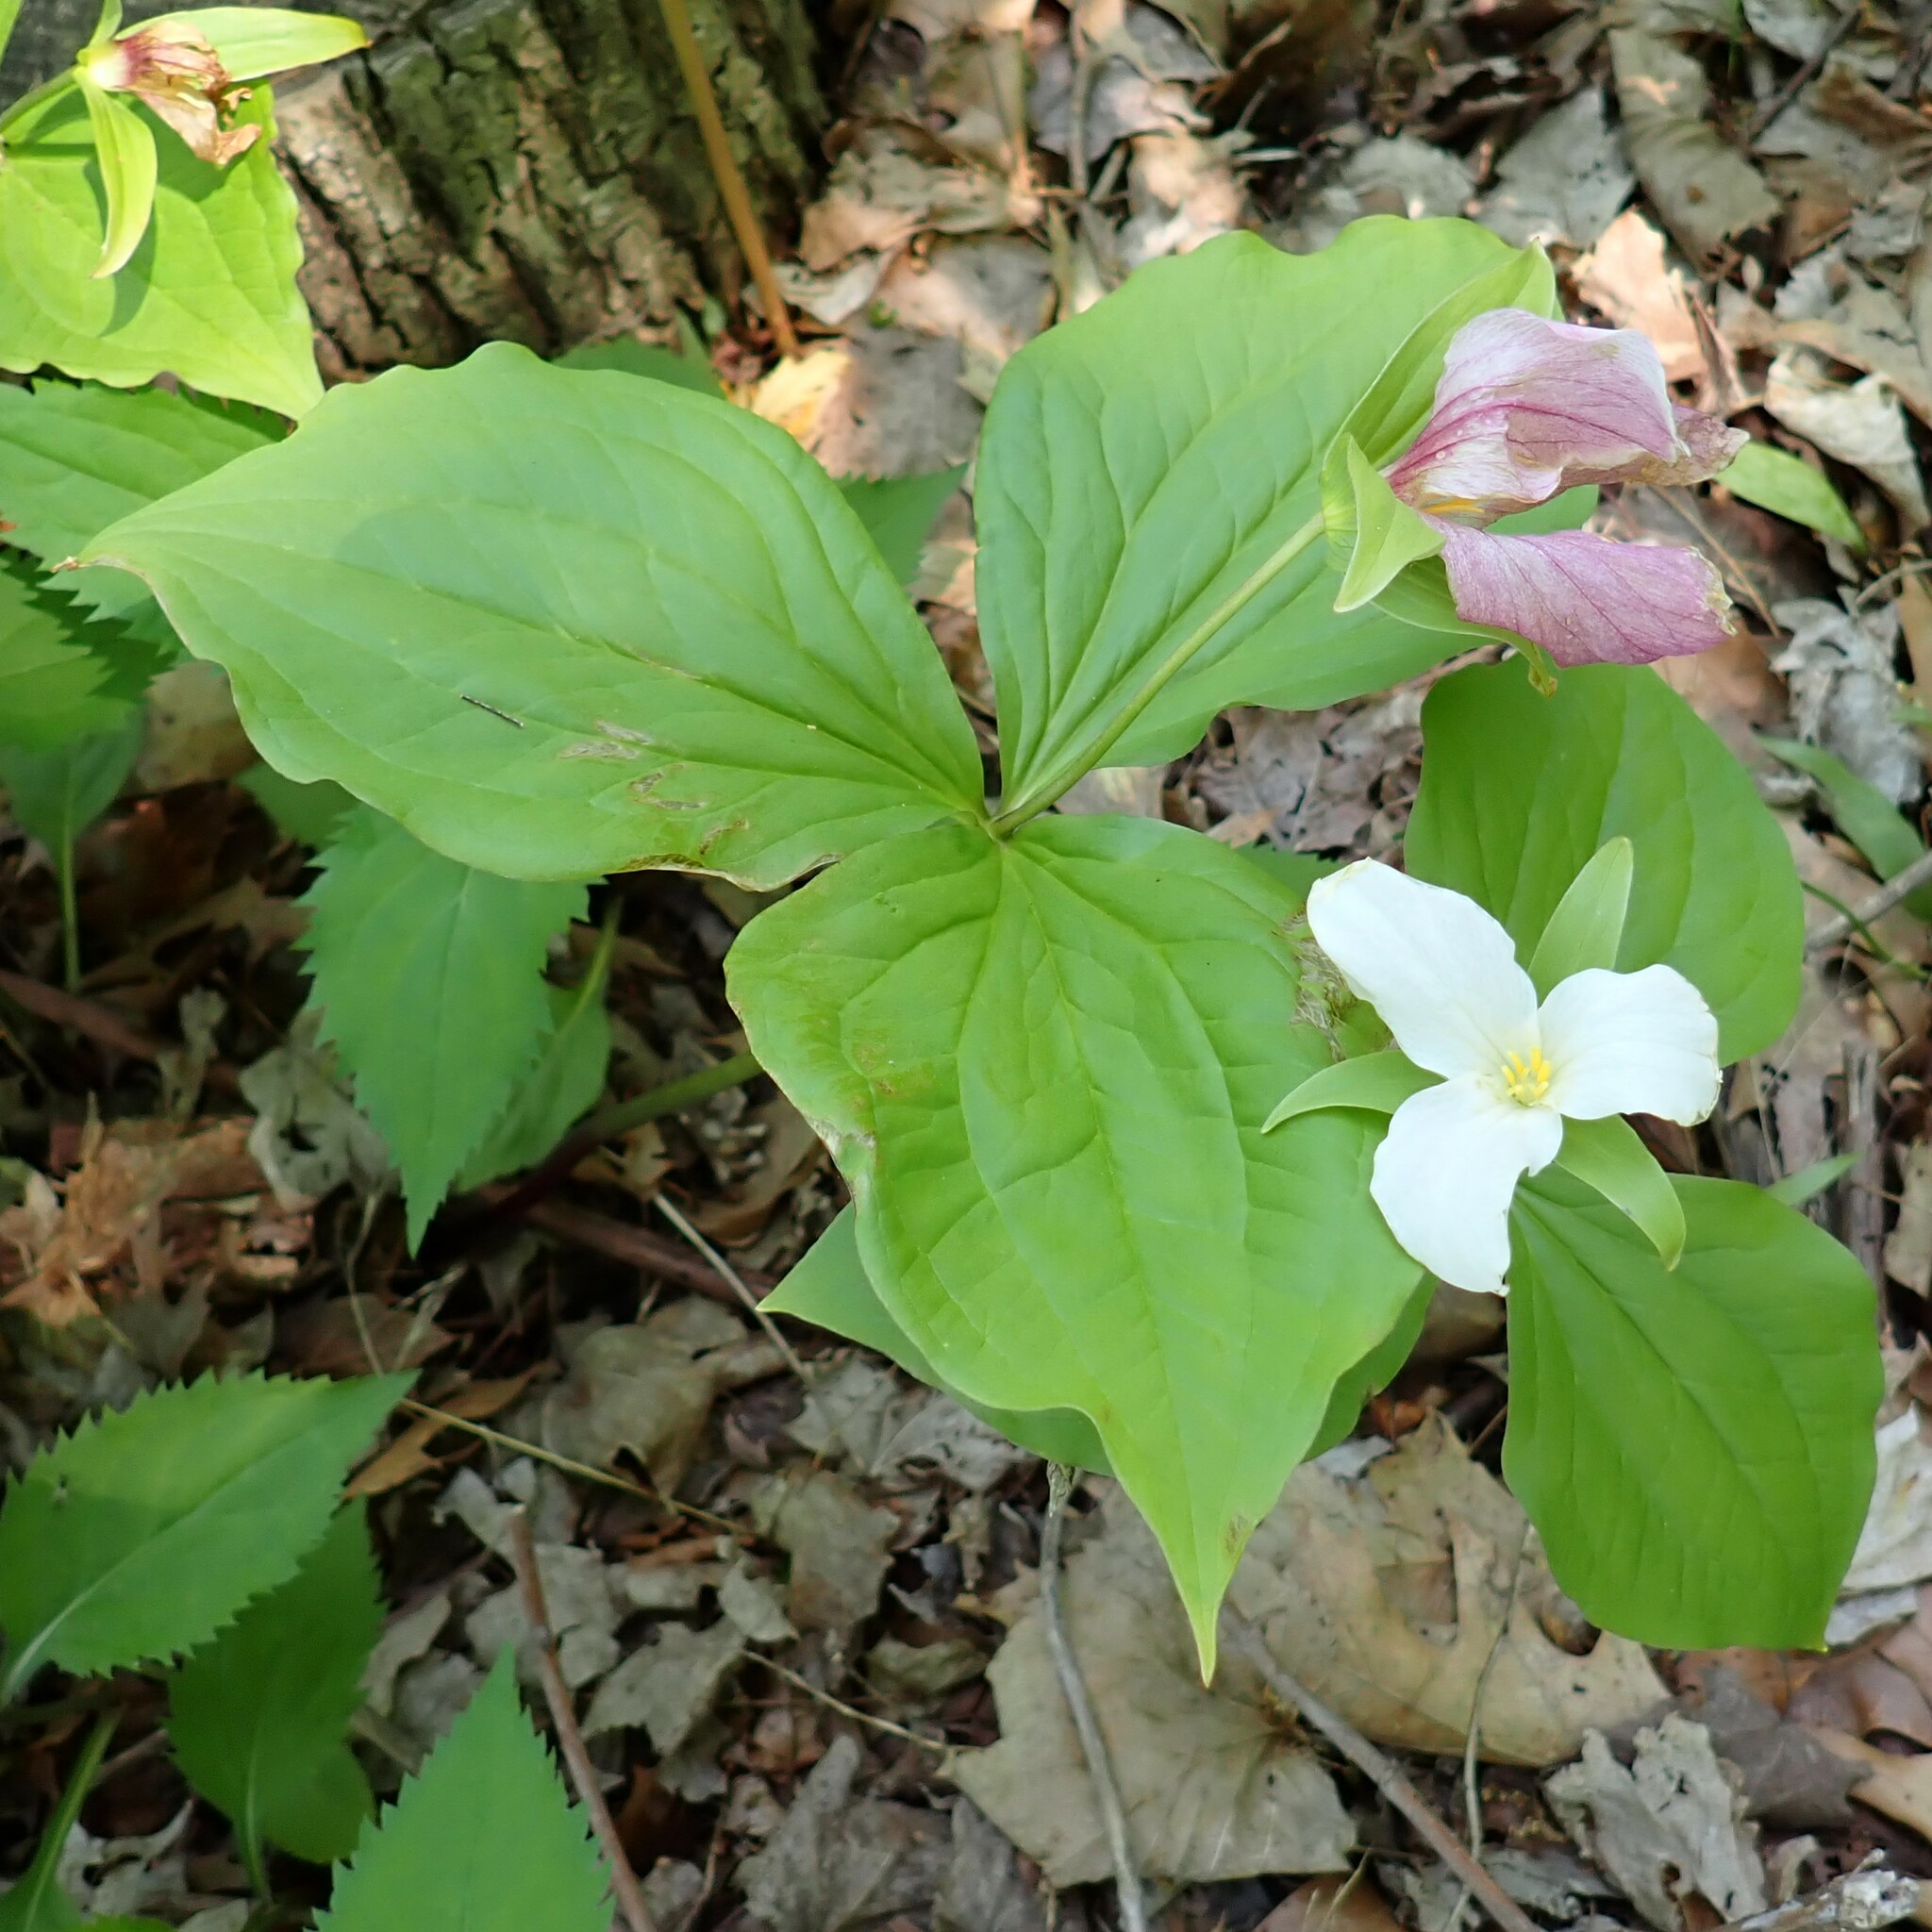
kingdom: Plantae
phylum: Tracheophyta
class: Liliopsida
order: Liliales
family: Melanthiaceae
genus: Trillium
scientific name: Trillium grandiflorum
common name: Great white trillium
